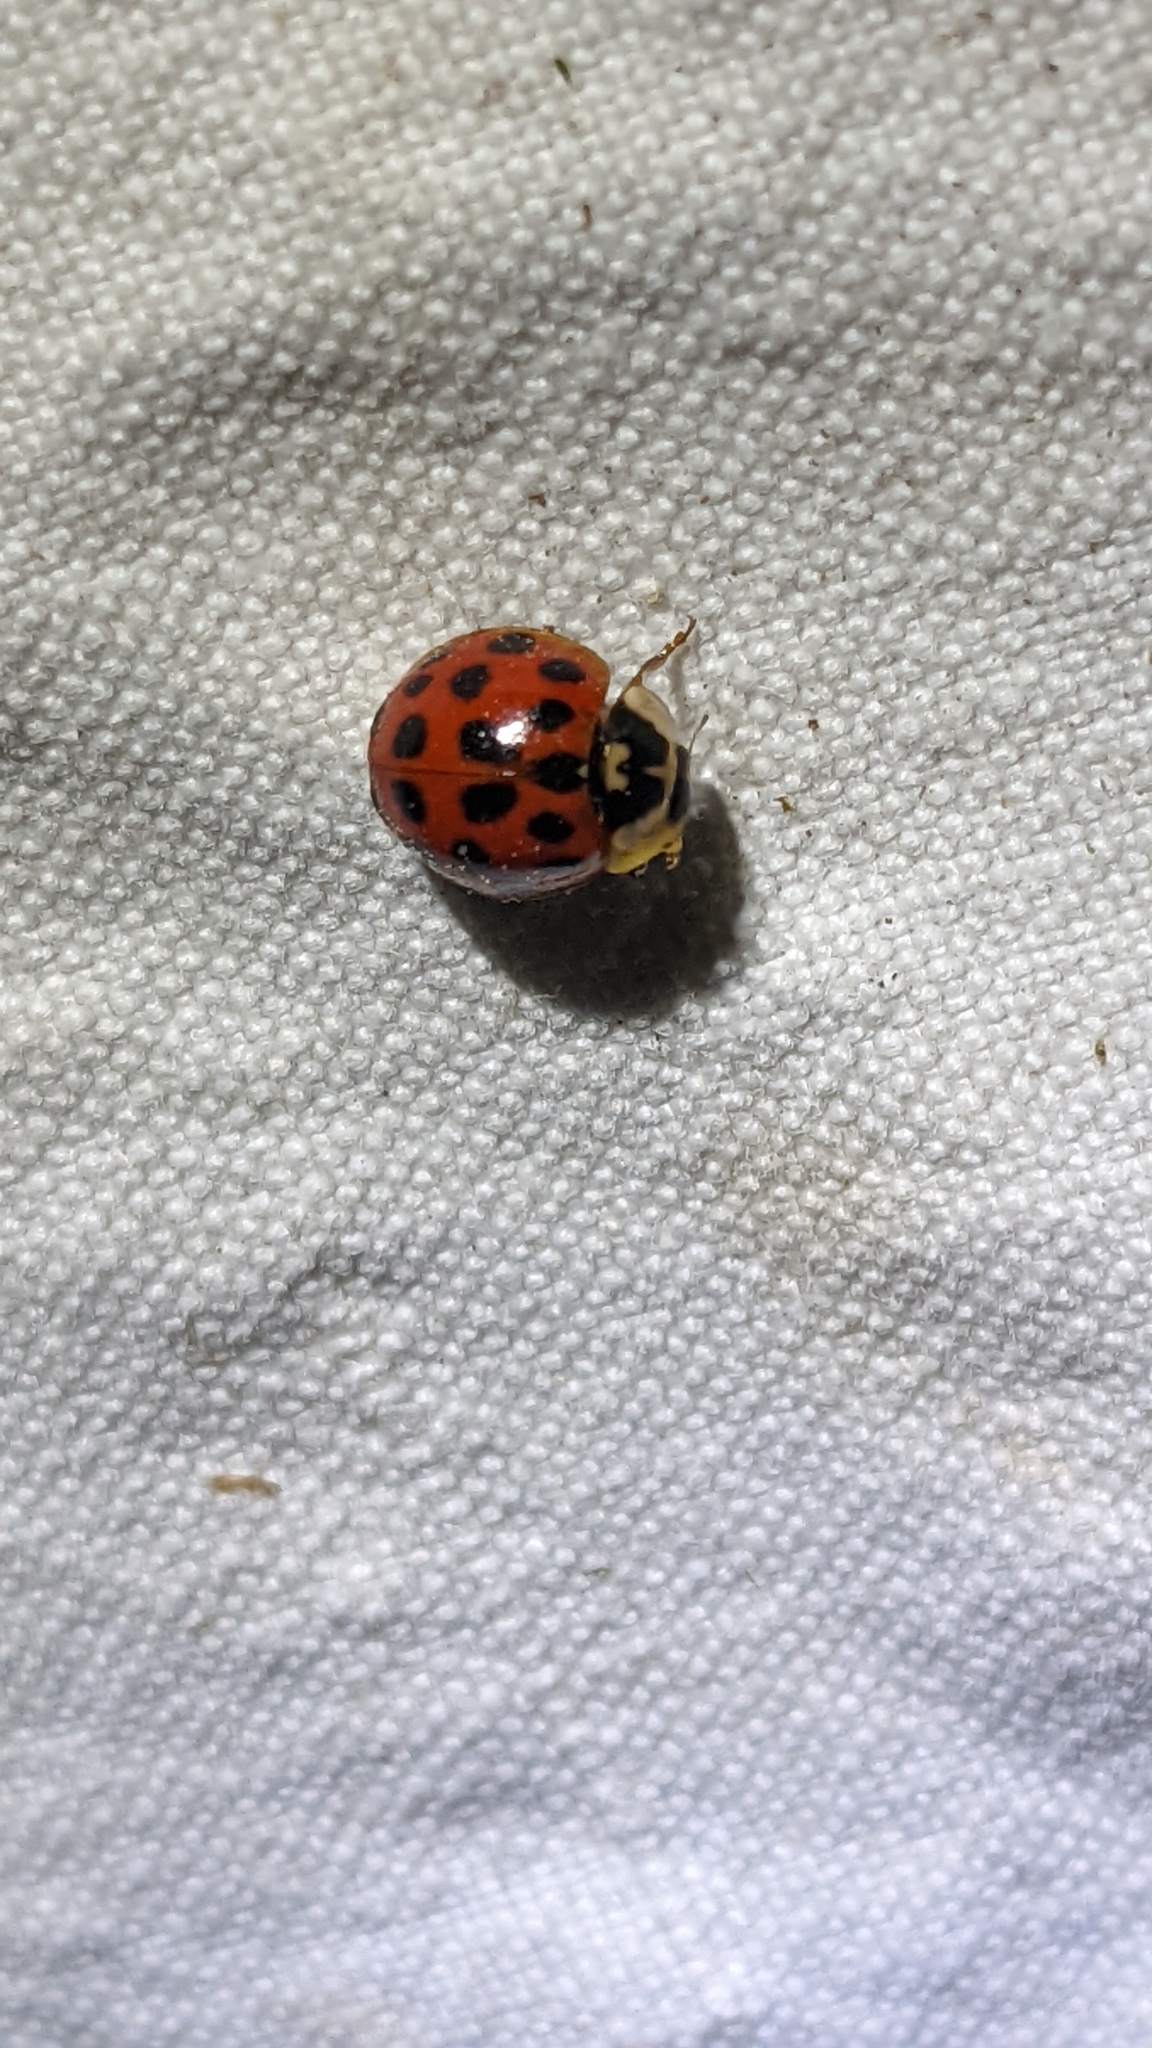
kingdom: Animalia
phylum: Arthropoda
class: Insecta
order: Coleoptera
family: Coccinellidae
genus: Harmonia
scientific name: Harmonia axyridis
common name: Harlequin ladybird
